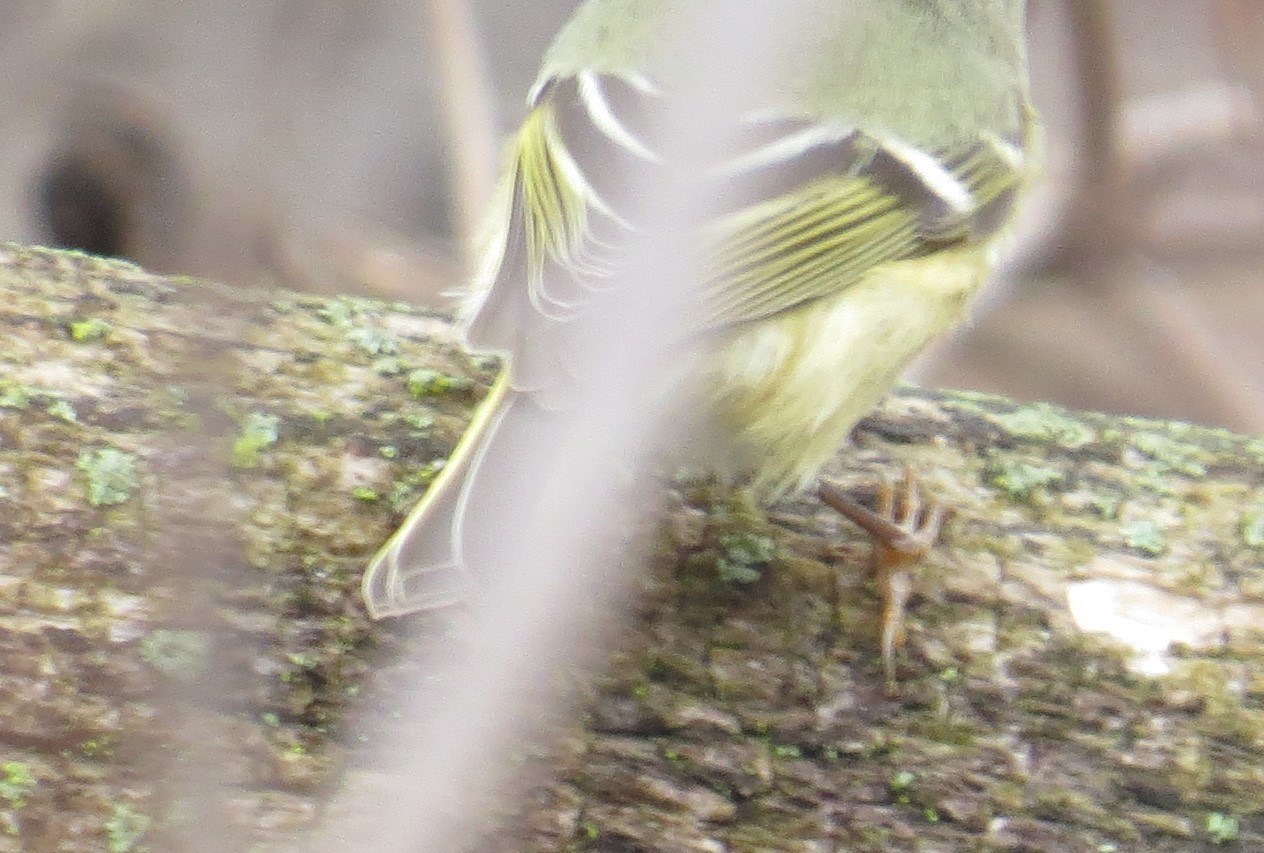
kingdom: Animalia
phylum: Chordata
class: Aves
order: Passeriformes
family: Regulidae
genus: Regulus
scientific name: Regulus calendula
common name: Ruby-crowned kinglet
